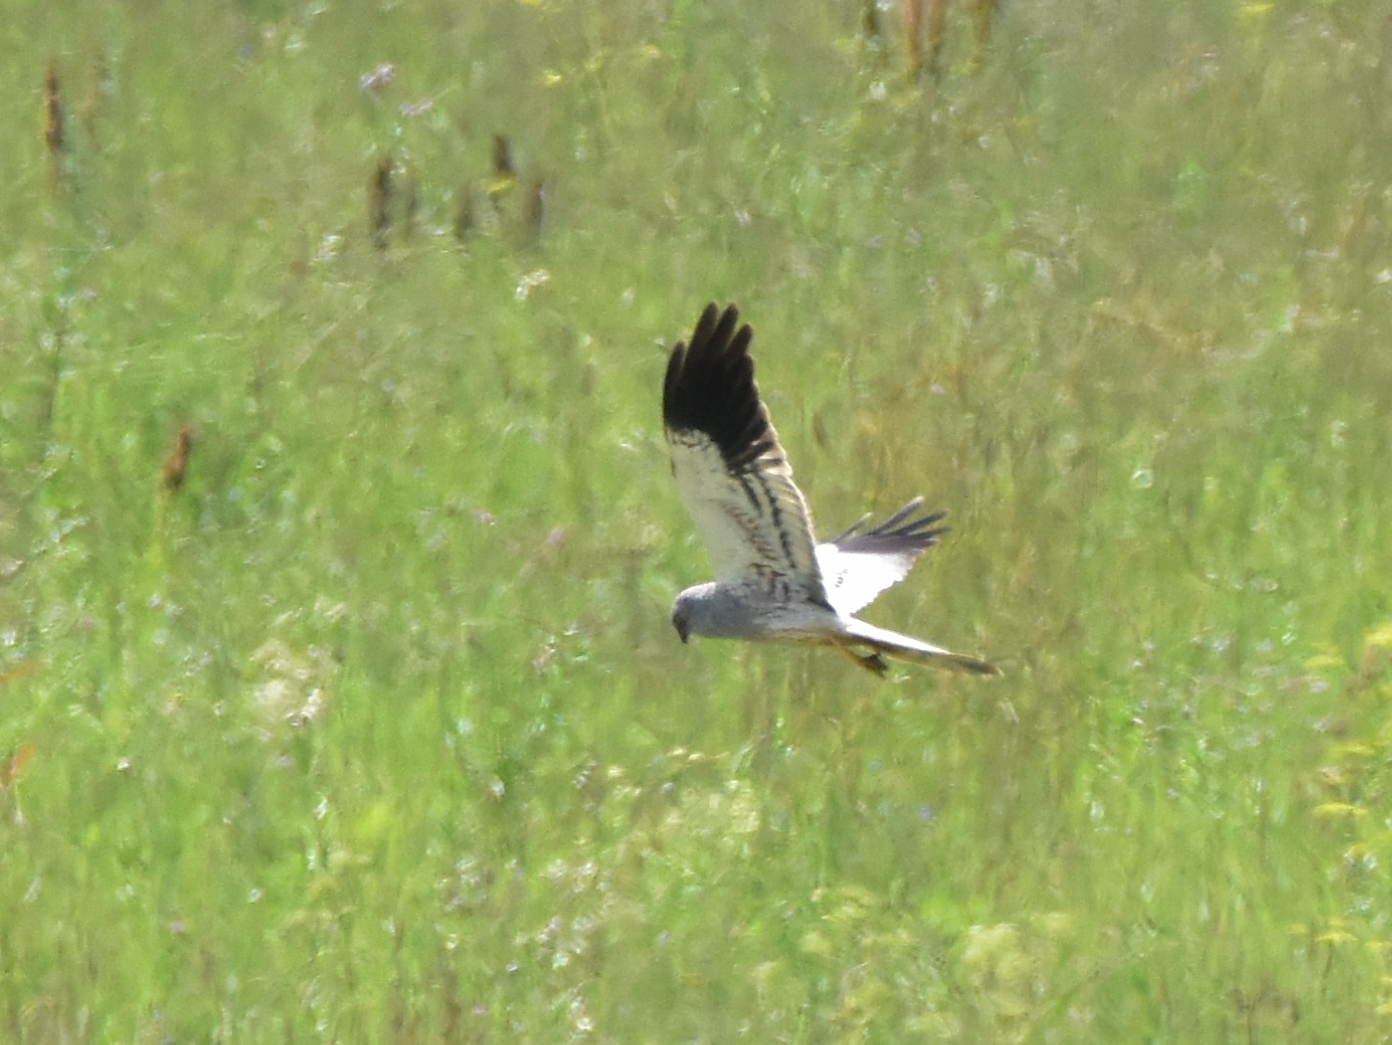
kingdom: Animalia
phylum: Chordata
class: Aves
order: Accipitriformes
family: Accipitridae
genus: Circus
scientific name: Circus pygargus
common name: Montagu's harrier
